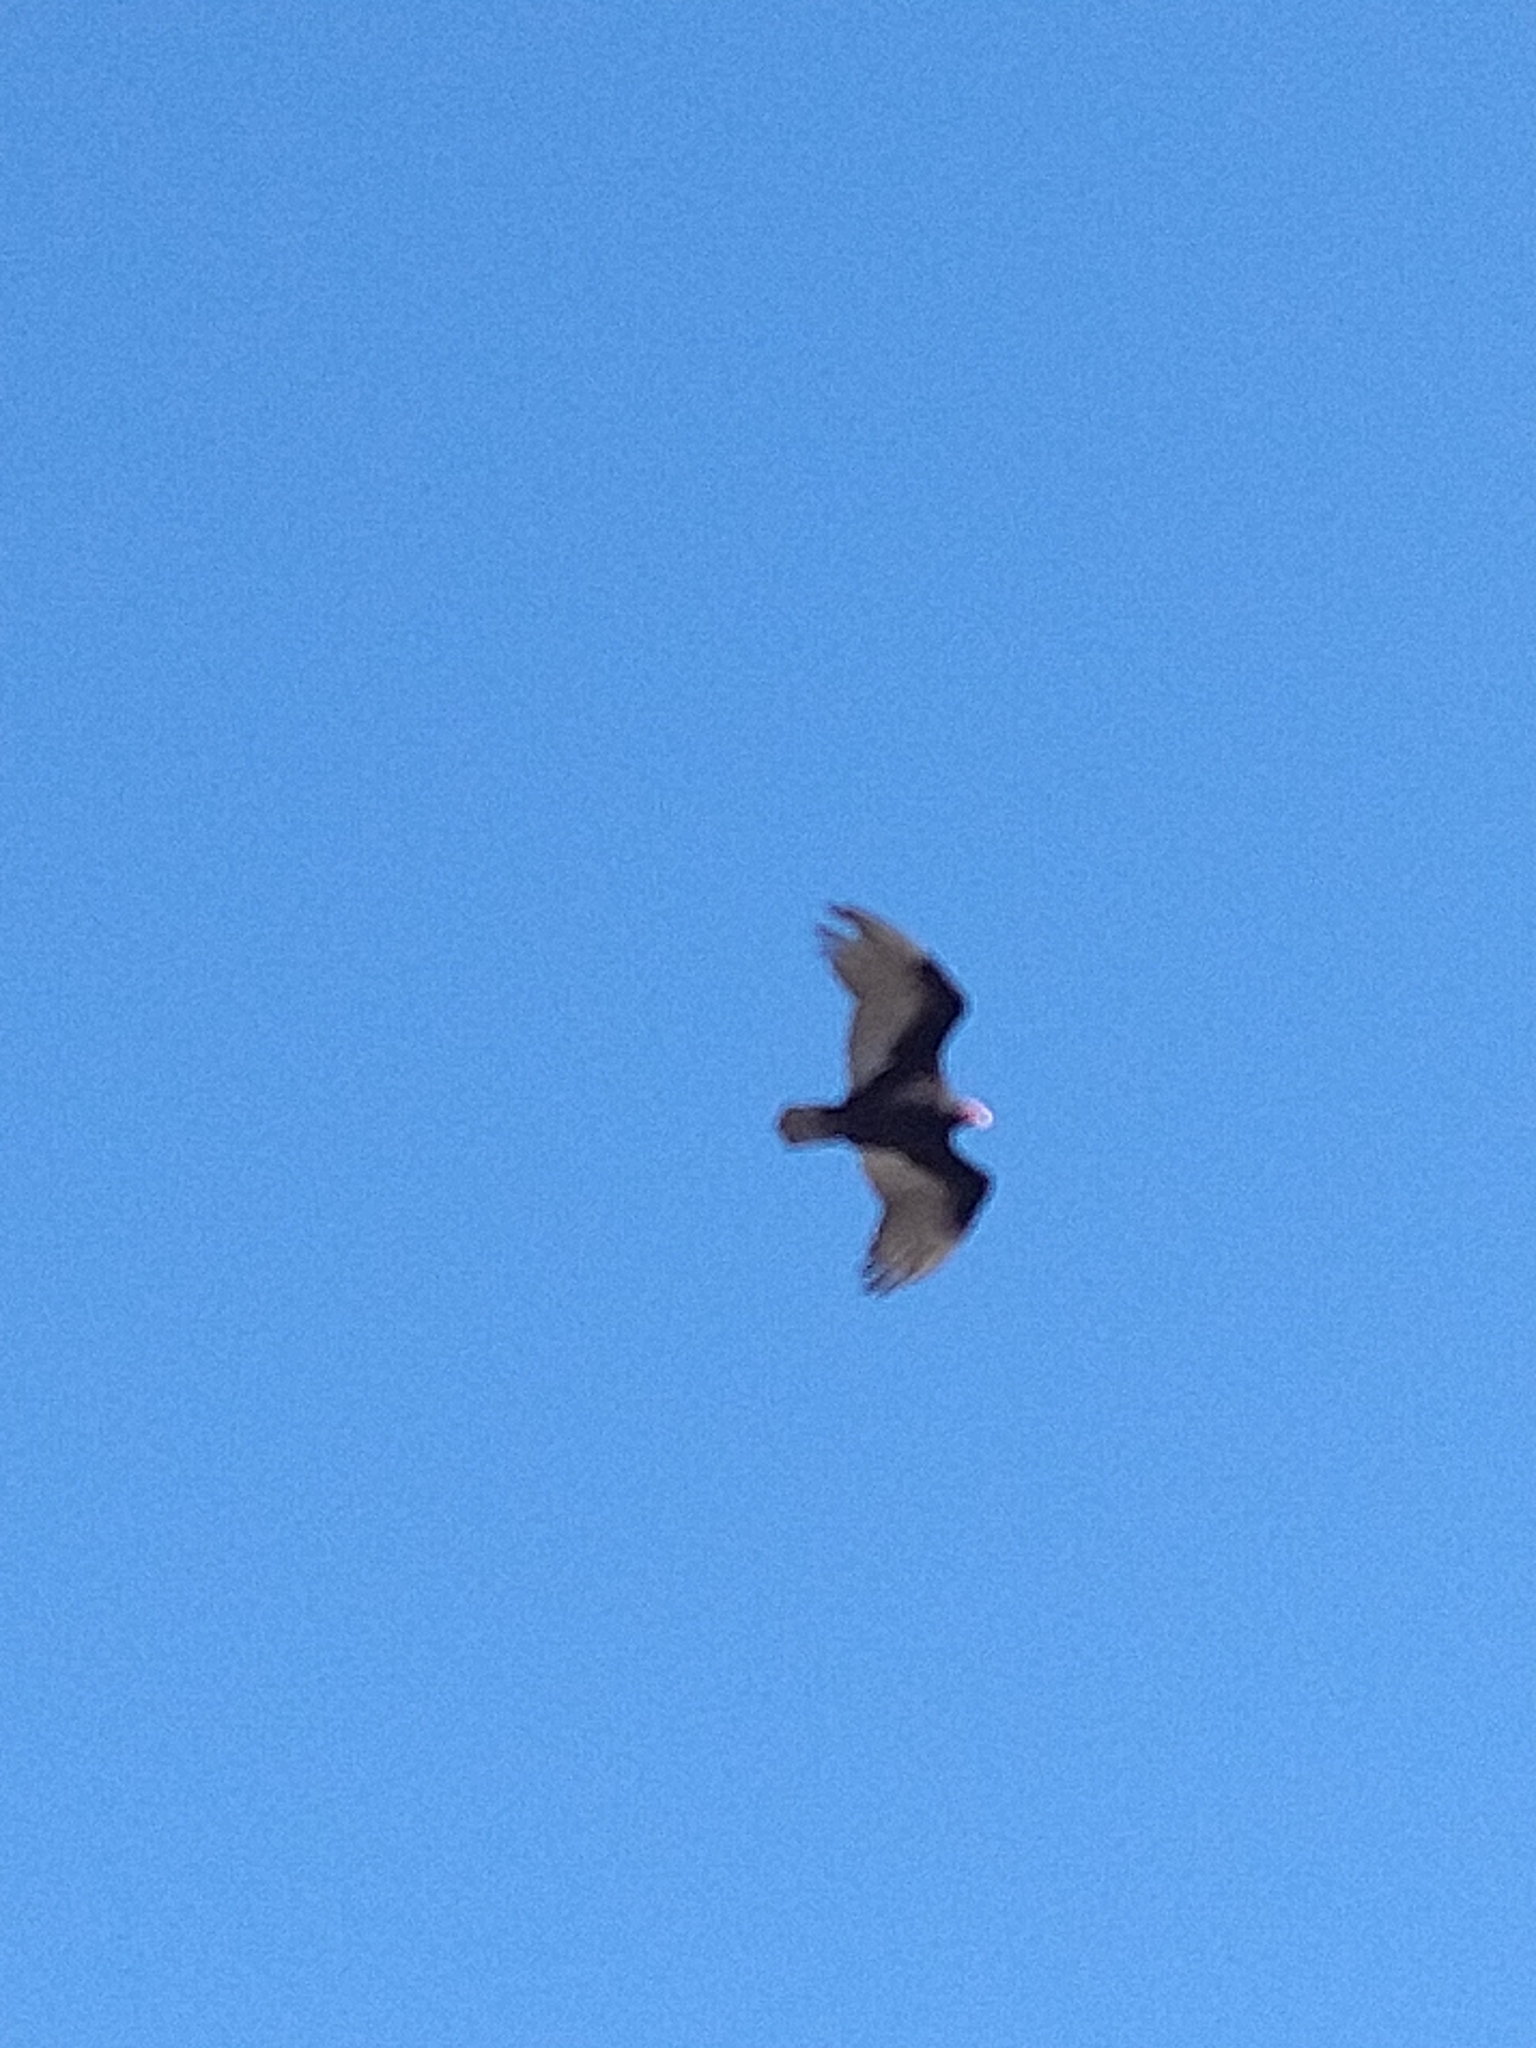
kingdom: Animalia
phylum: Chordata
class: Aves
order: Accipitriformes
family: Cathartidae
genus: Cathartes
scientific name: Cathartes aura
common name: Turkey vulture
